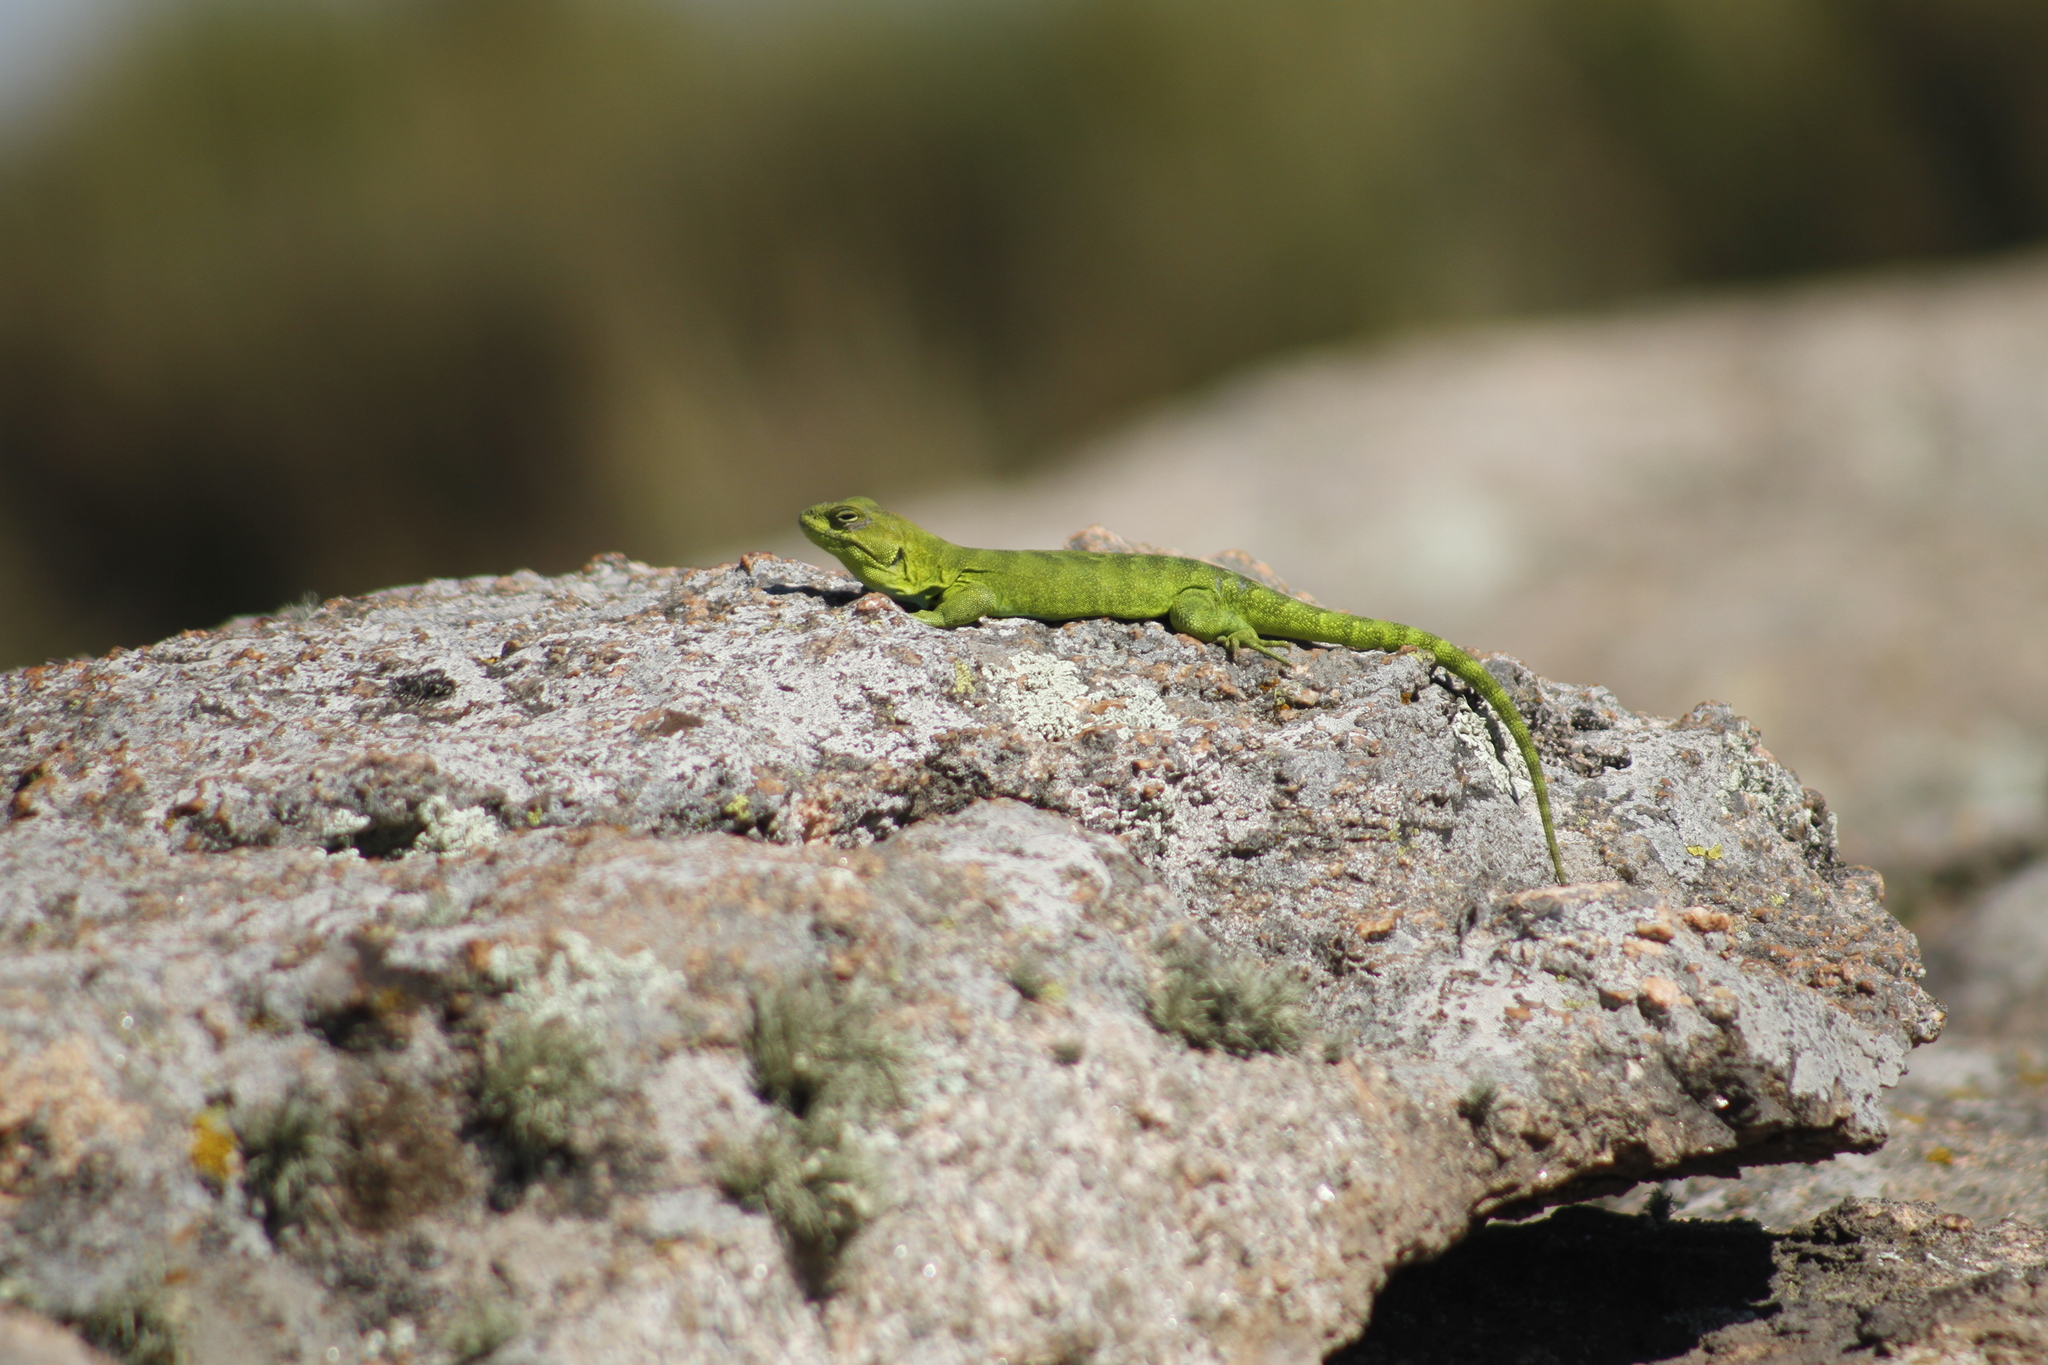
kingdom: Animalia
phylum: Chordata
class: Squamata
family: Leiosauridae
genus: Pristidactylus
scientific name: Pristidactylus achalensis
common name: Argentine anole
